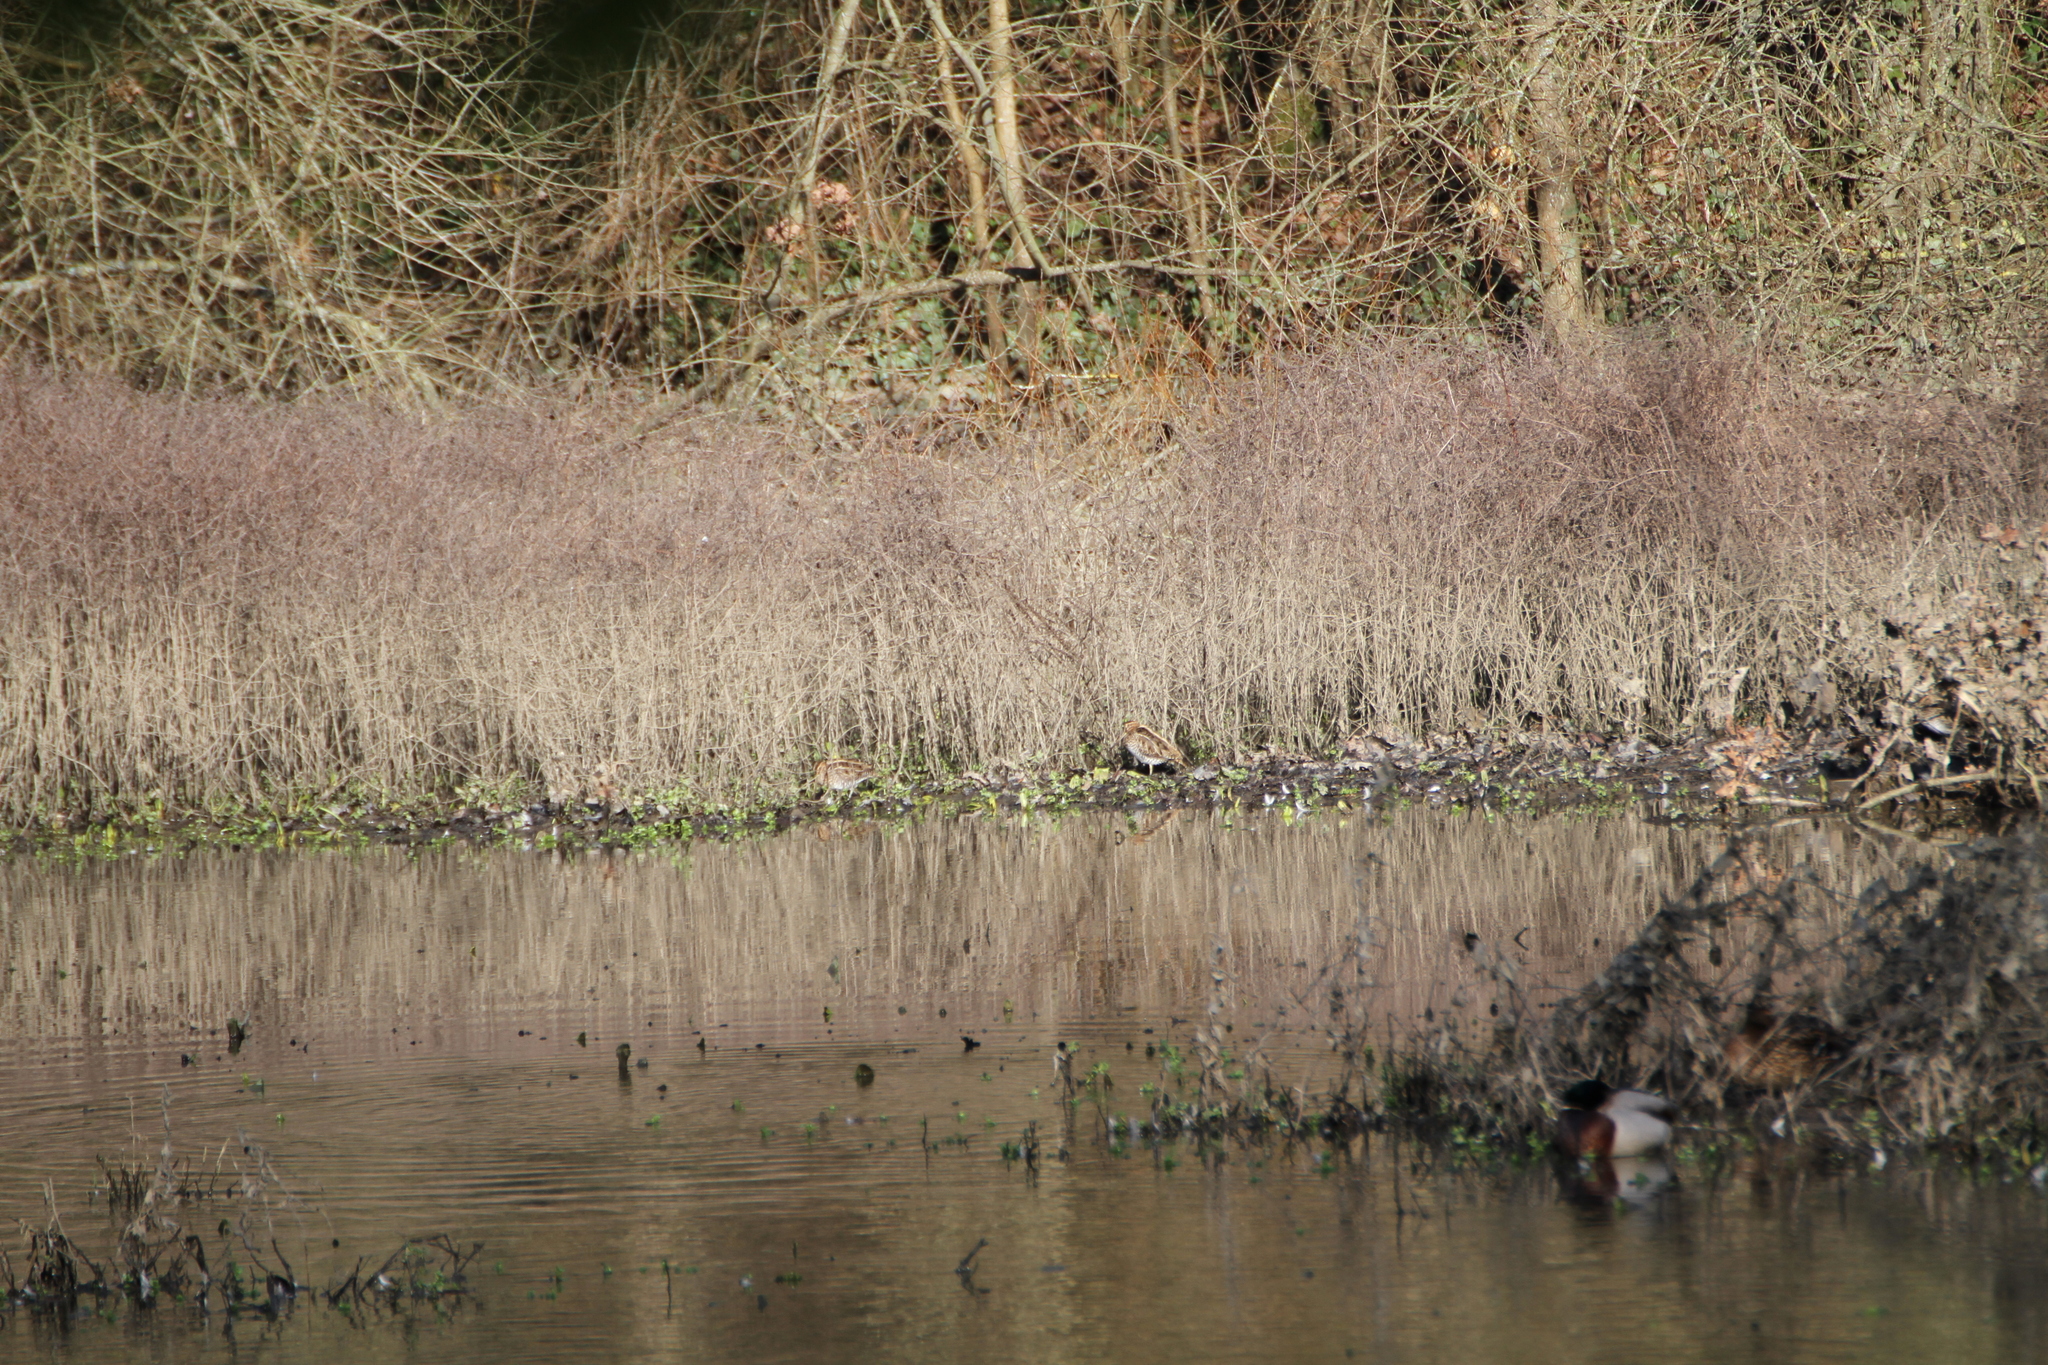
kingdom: Animalia
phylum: Chordata
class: Aves
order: Charadriiformes
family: Scolopacidae
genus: Gallinago
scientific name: Gallinago gallinago
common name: Common snipe
